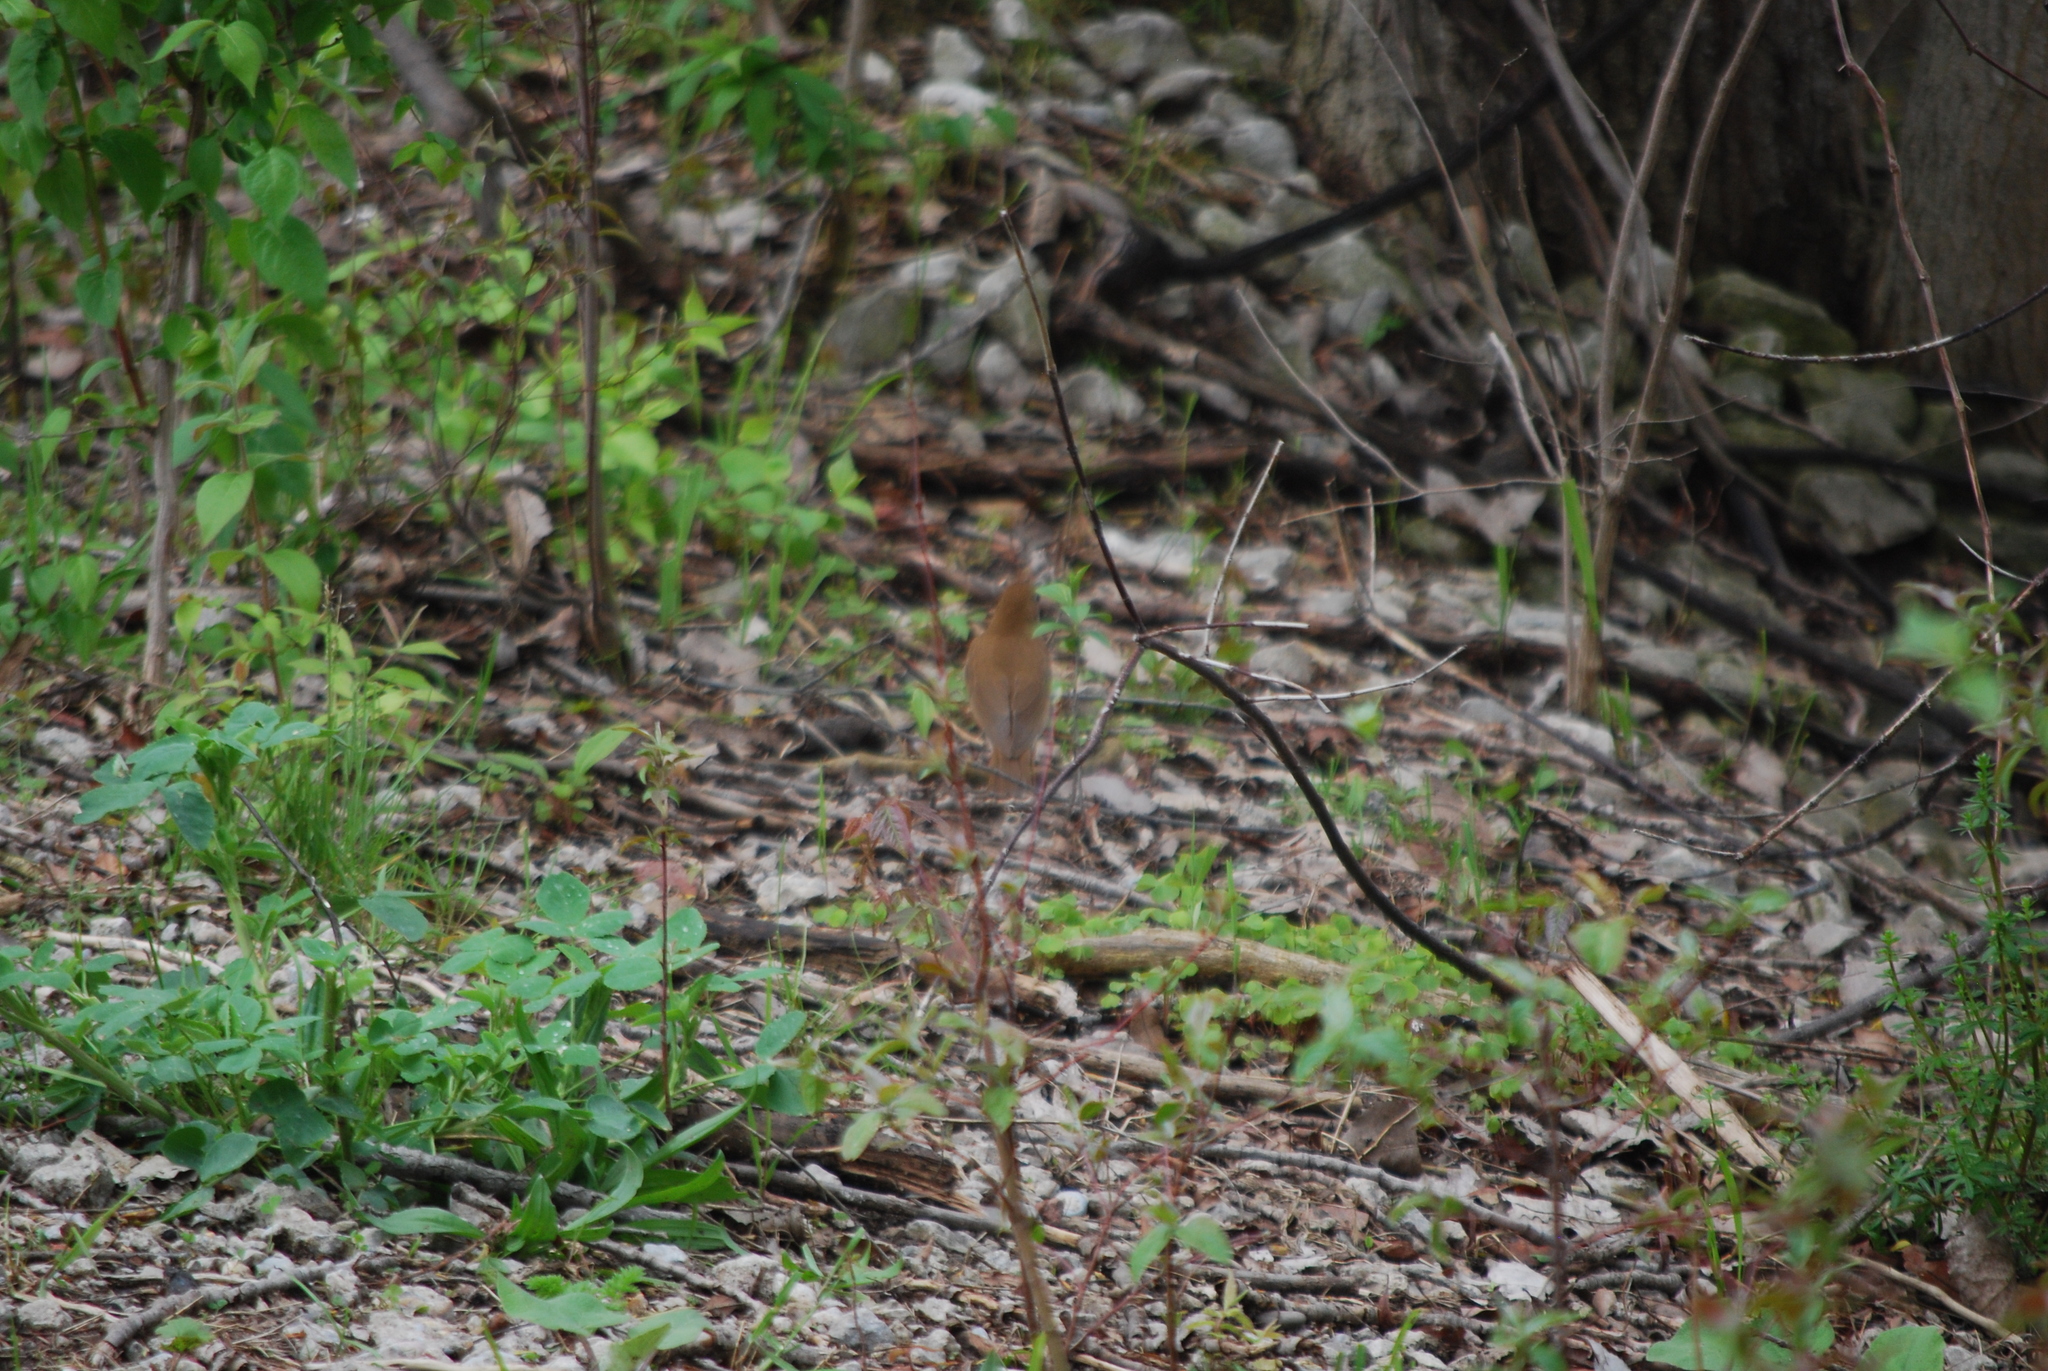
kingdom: Animalia
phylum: Chordata
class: Aves
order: Passeriformes
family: Turdidae
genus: Catharus
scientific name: Catharus fuscescens
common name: Veery
